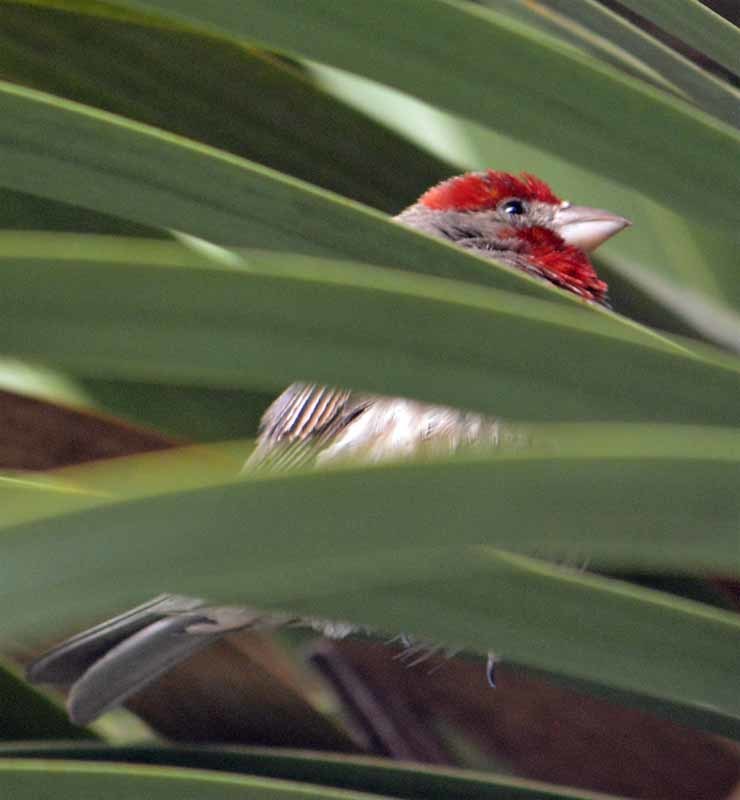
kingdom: Animalia
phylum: Chordata
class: Aves
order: Passeriformes
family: Fringillidae
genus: Haemorhous
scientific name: Haemorhous mexicanus
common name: House finch
